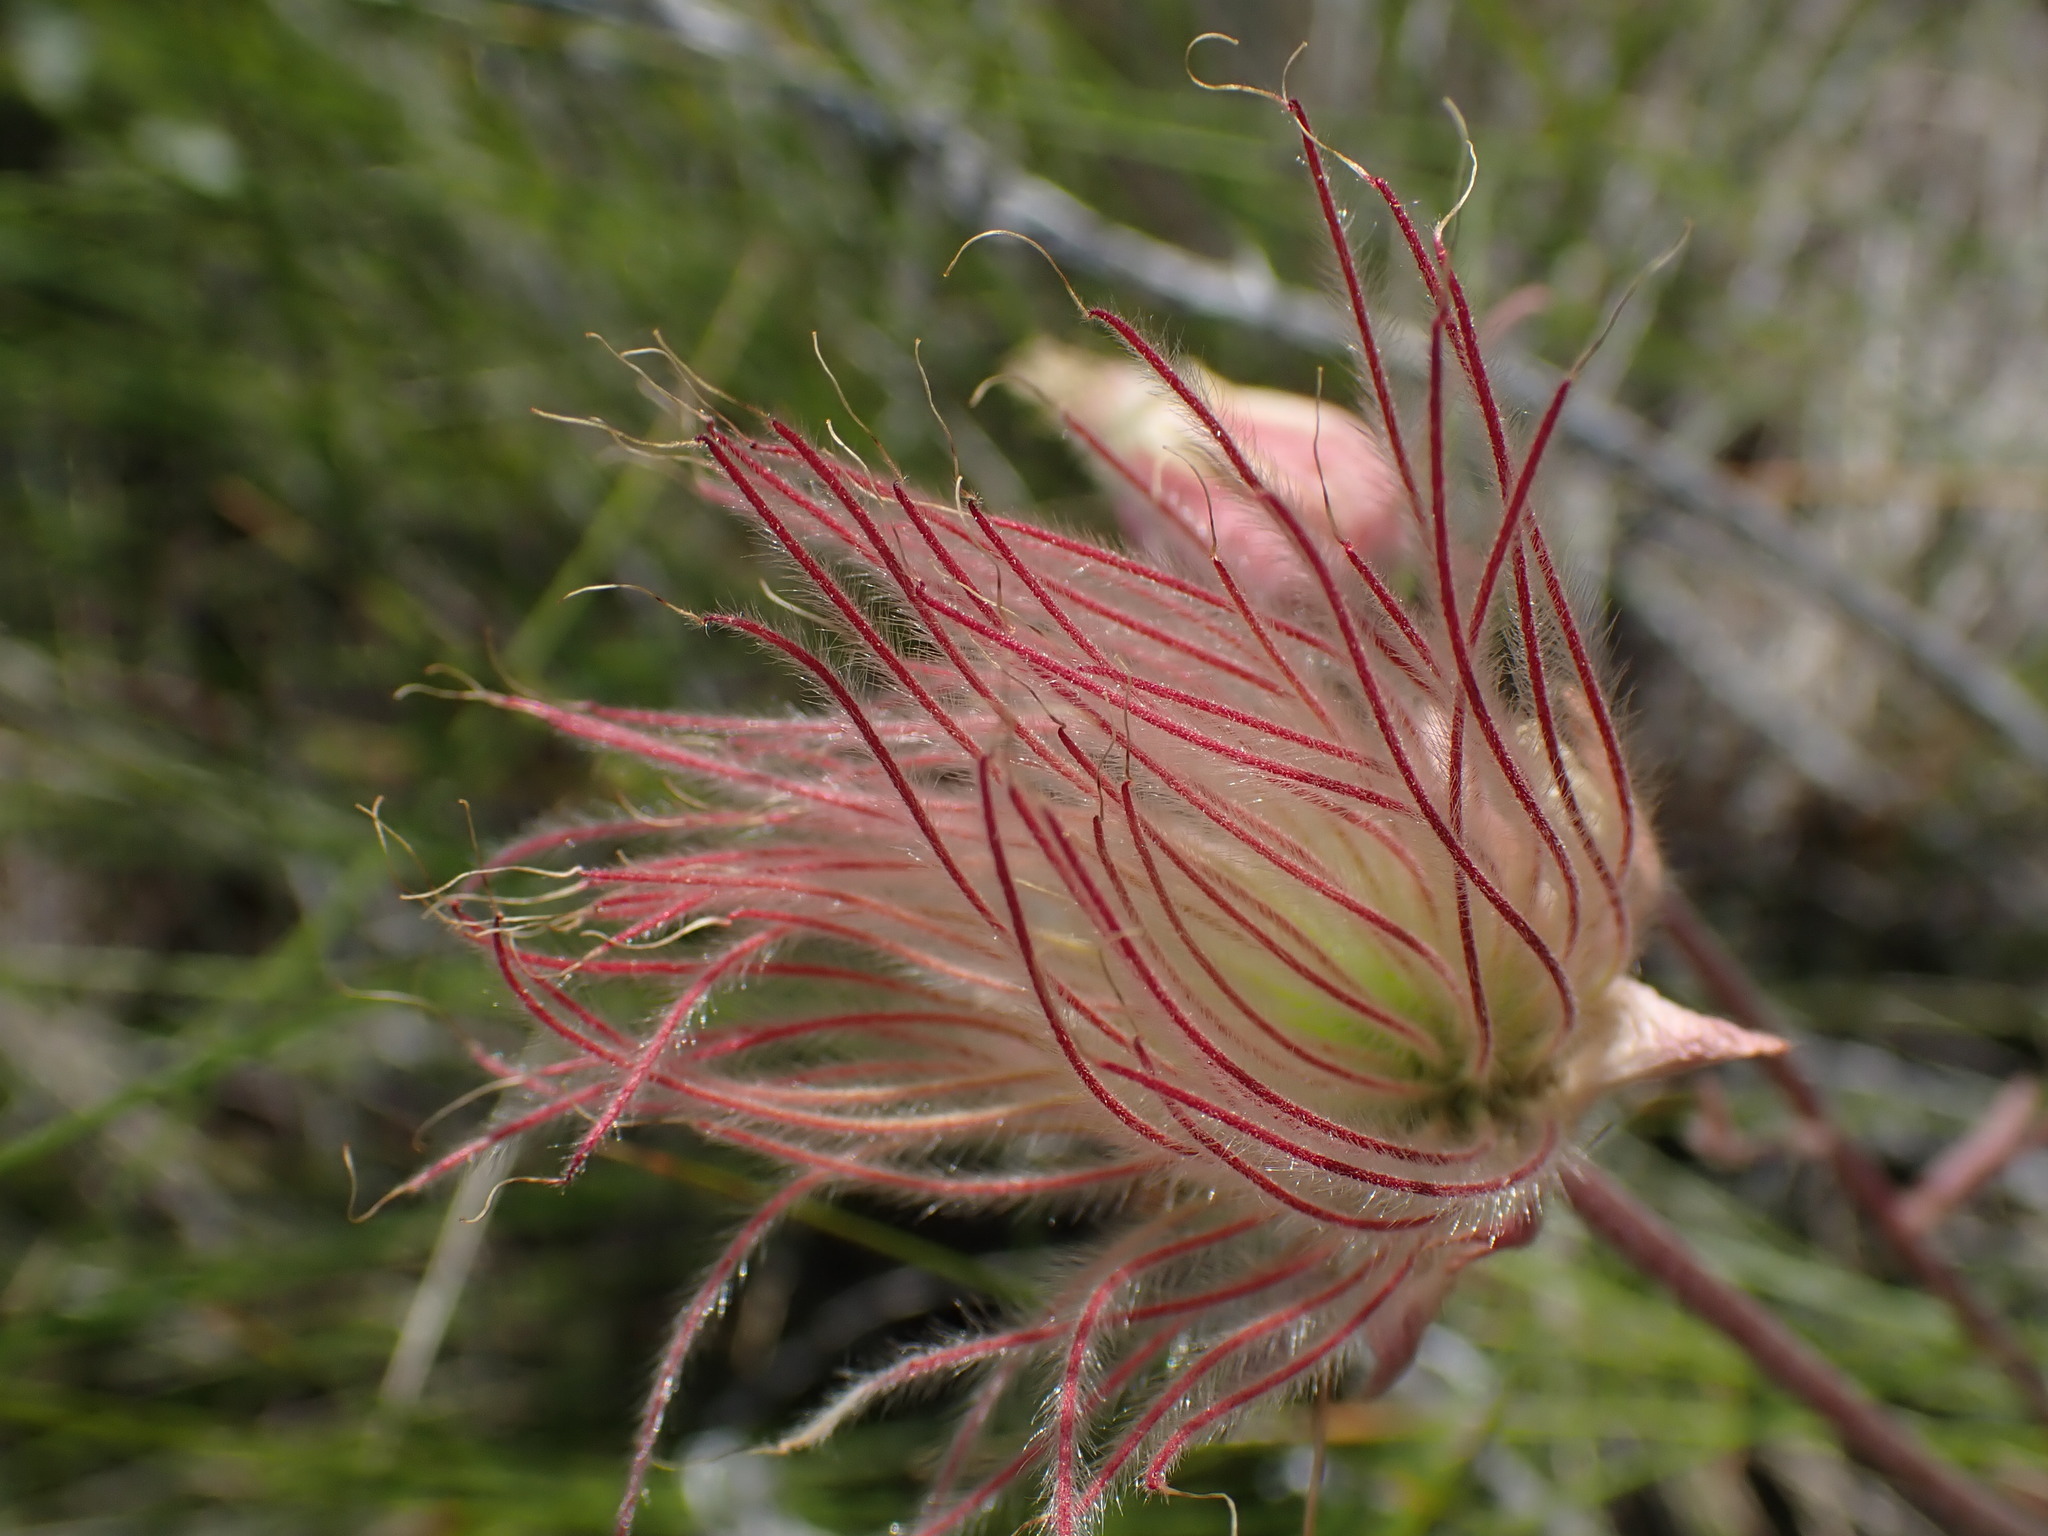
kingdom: Plantae
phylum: Tracheophyta
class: Magnoliopsida
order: Rosales
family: Rosaceae
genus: Geum
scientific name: Geum triflorum
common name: Old man's whiskers
